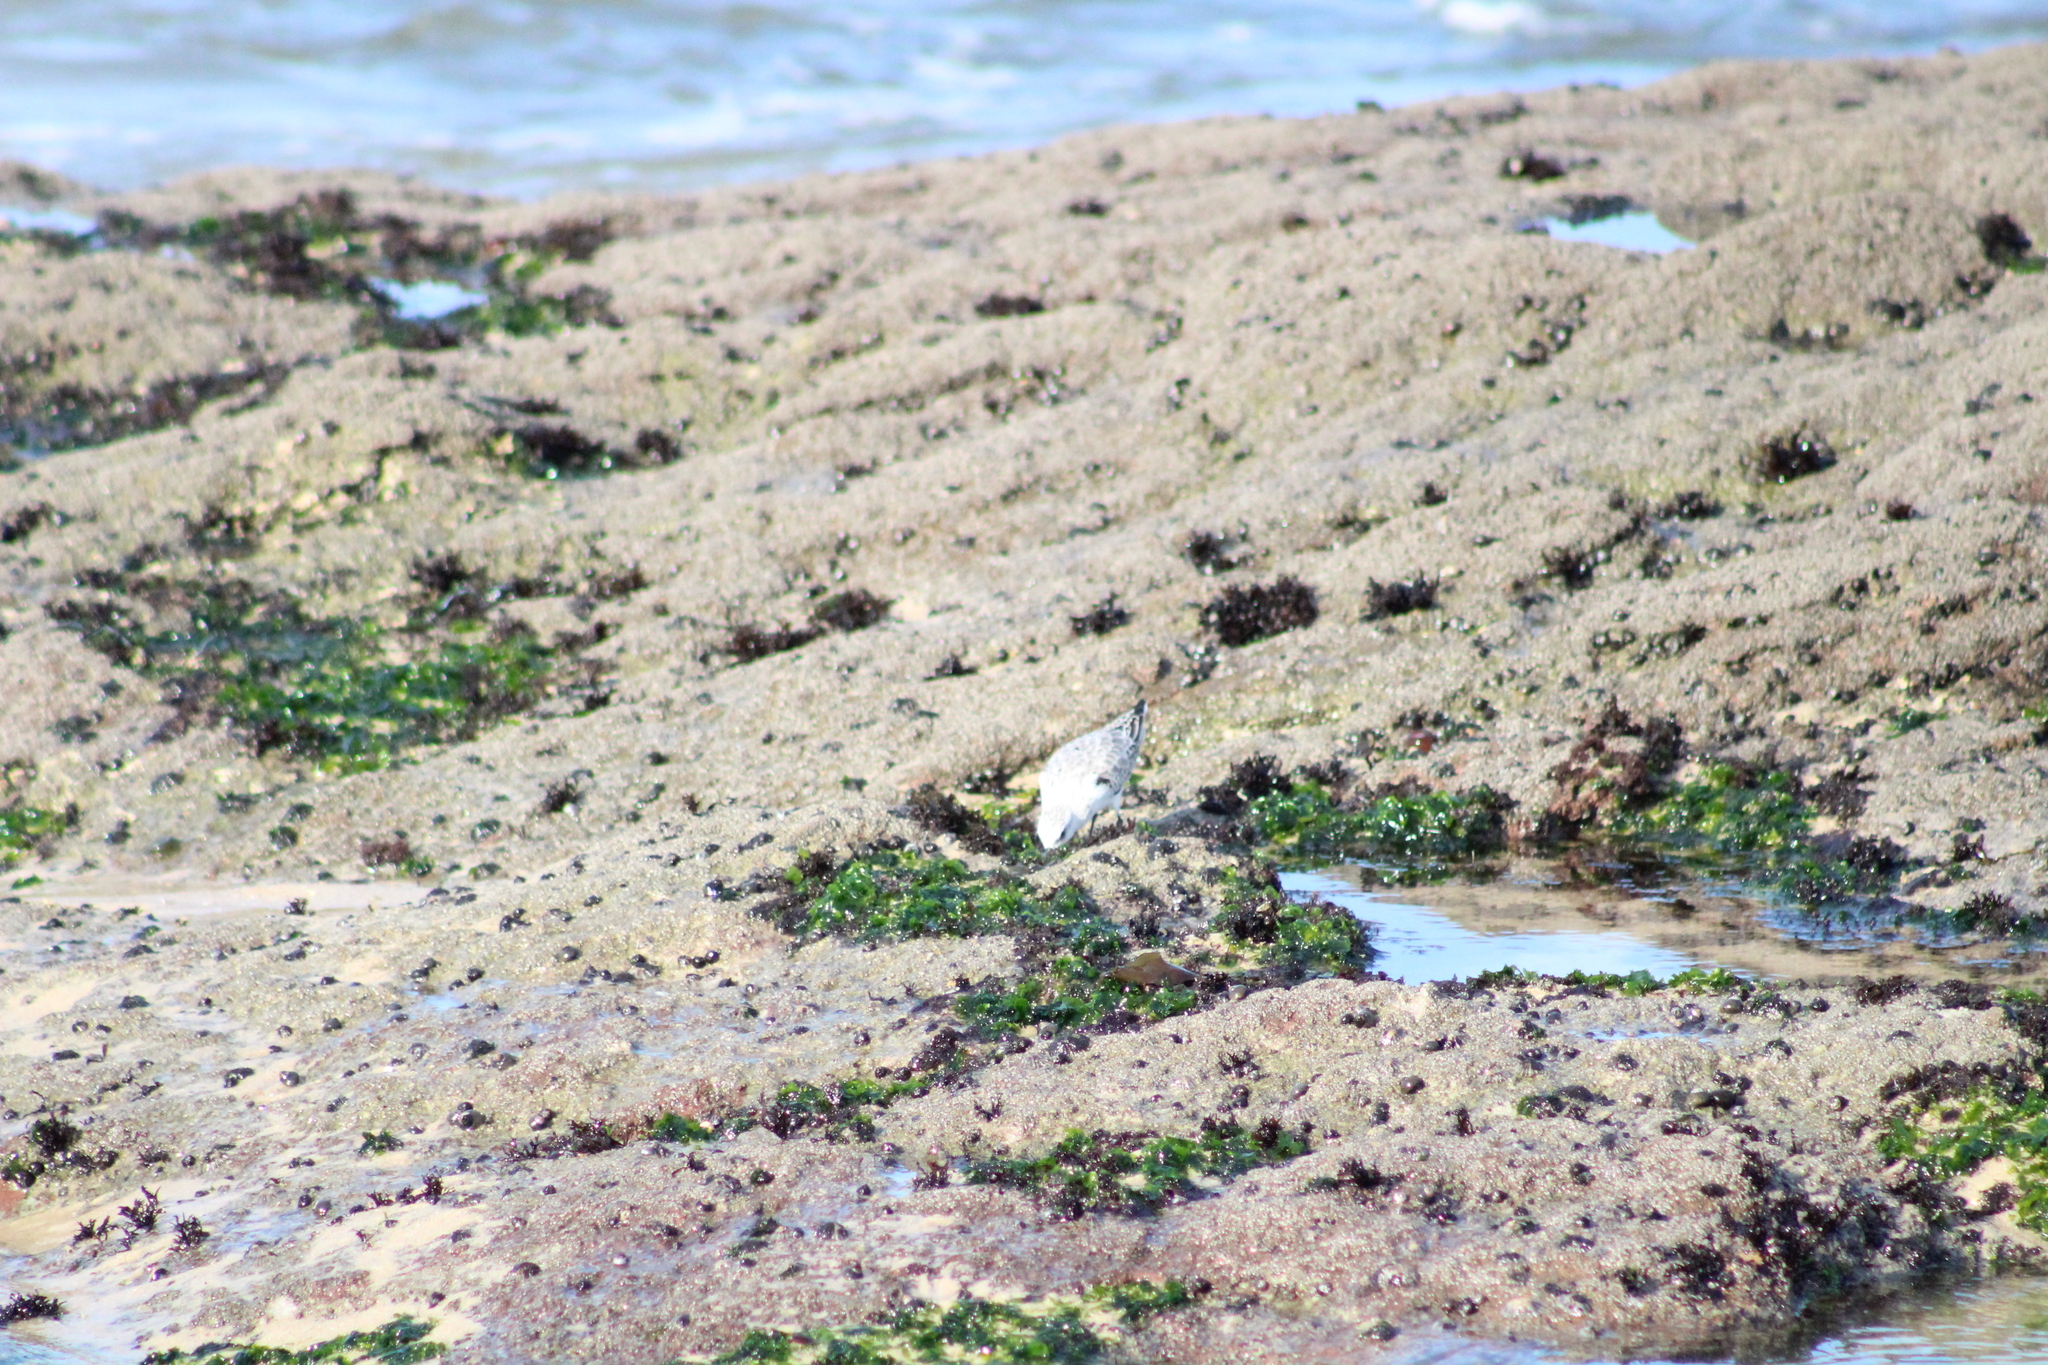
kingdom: Animalia
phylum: Chordata
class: Aves
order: Charadriiformes
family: Scolopacidae
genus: Calidris
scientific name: Calidris alba
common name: Sanderling
